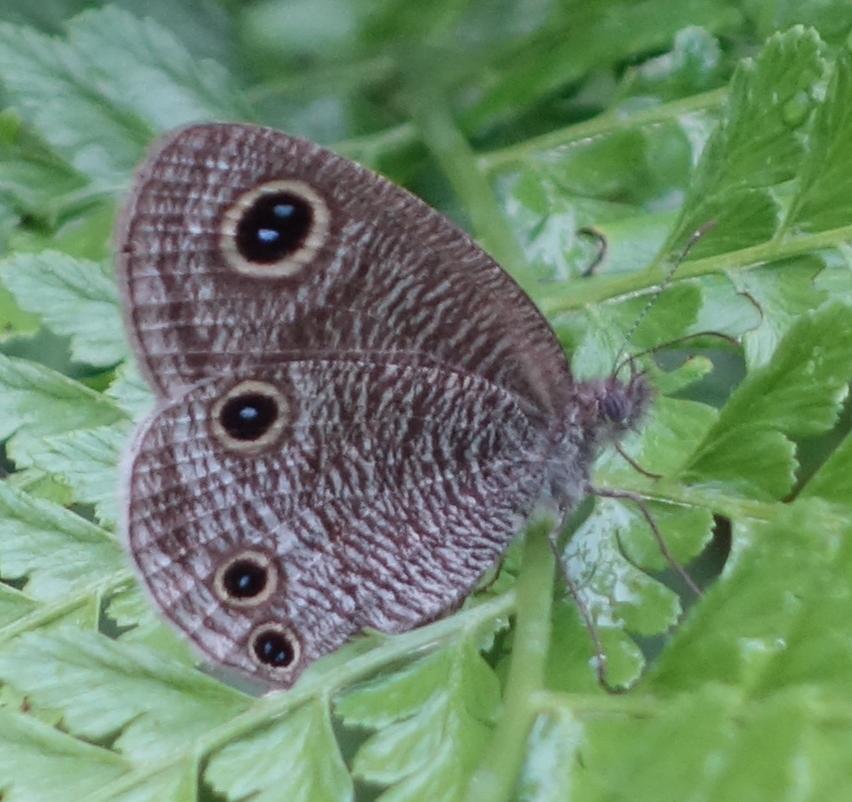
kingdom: Animalia
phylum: Arthropoda
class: Insecta
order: Lepidoptera
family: Nymphalidae
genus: Ypthima
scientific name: Ypthima multistriata
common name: Striated ringlet
